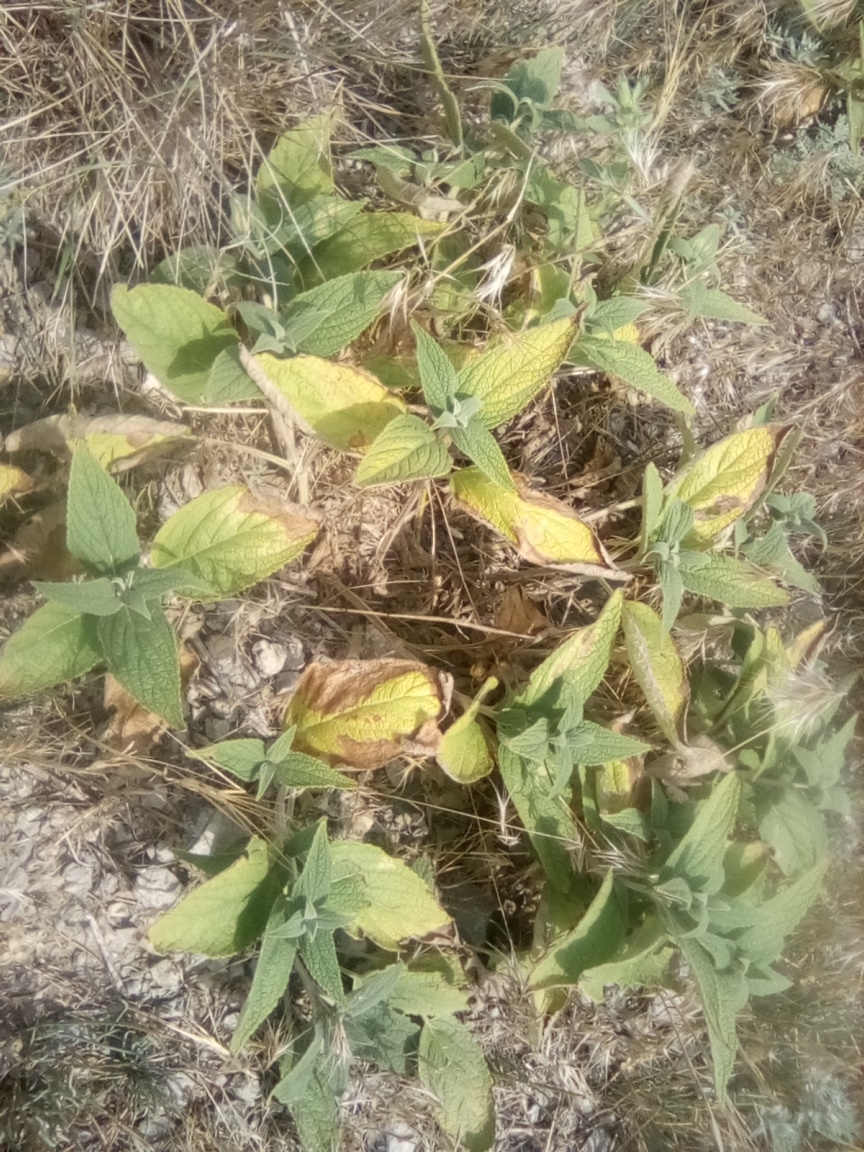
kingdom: Plantae
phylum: Tracheophyta
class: Magnoliopsida
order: Lamiales
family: Lamiaceae
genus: Phlomis
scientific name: Phlomis herba-venti
